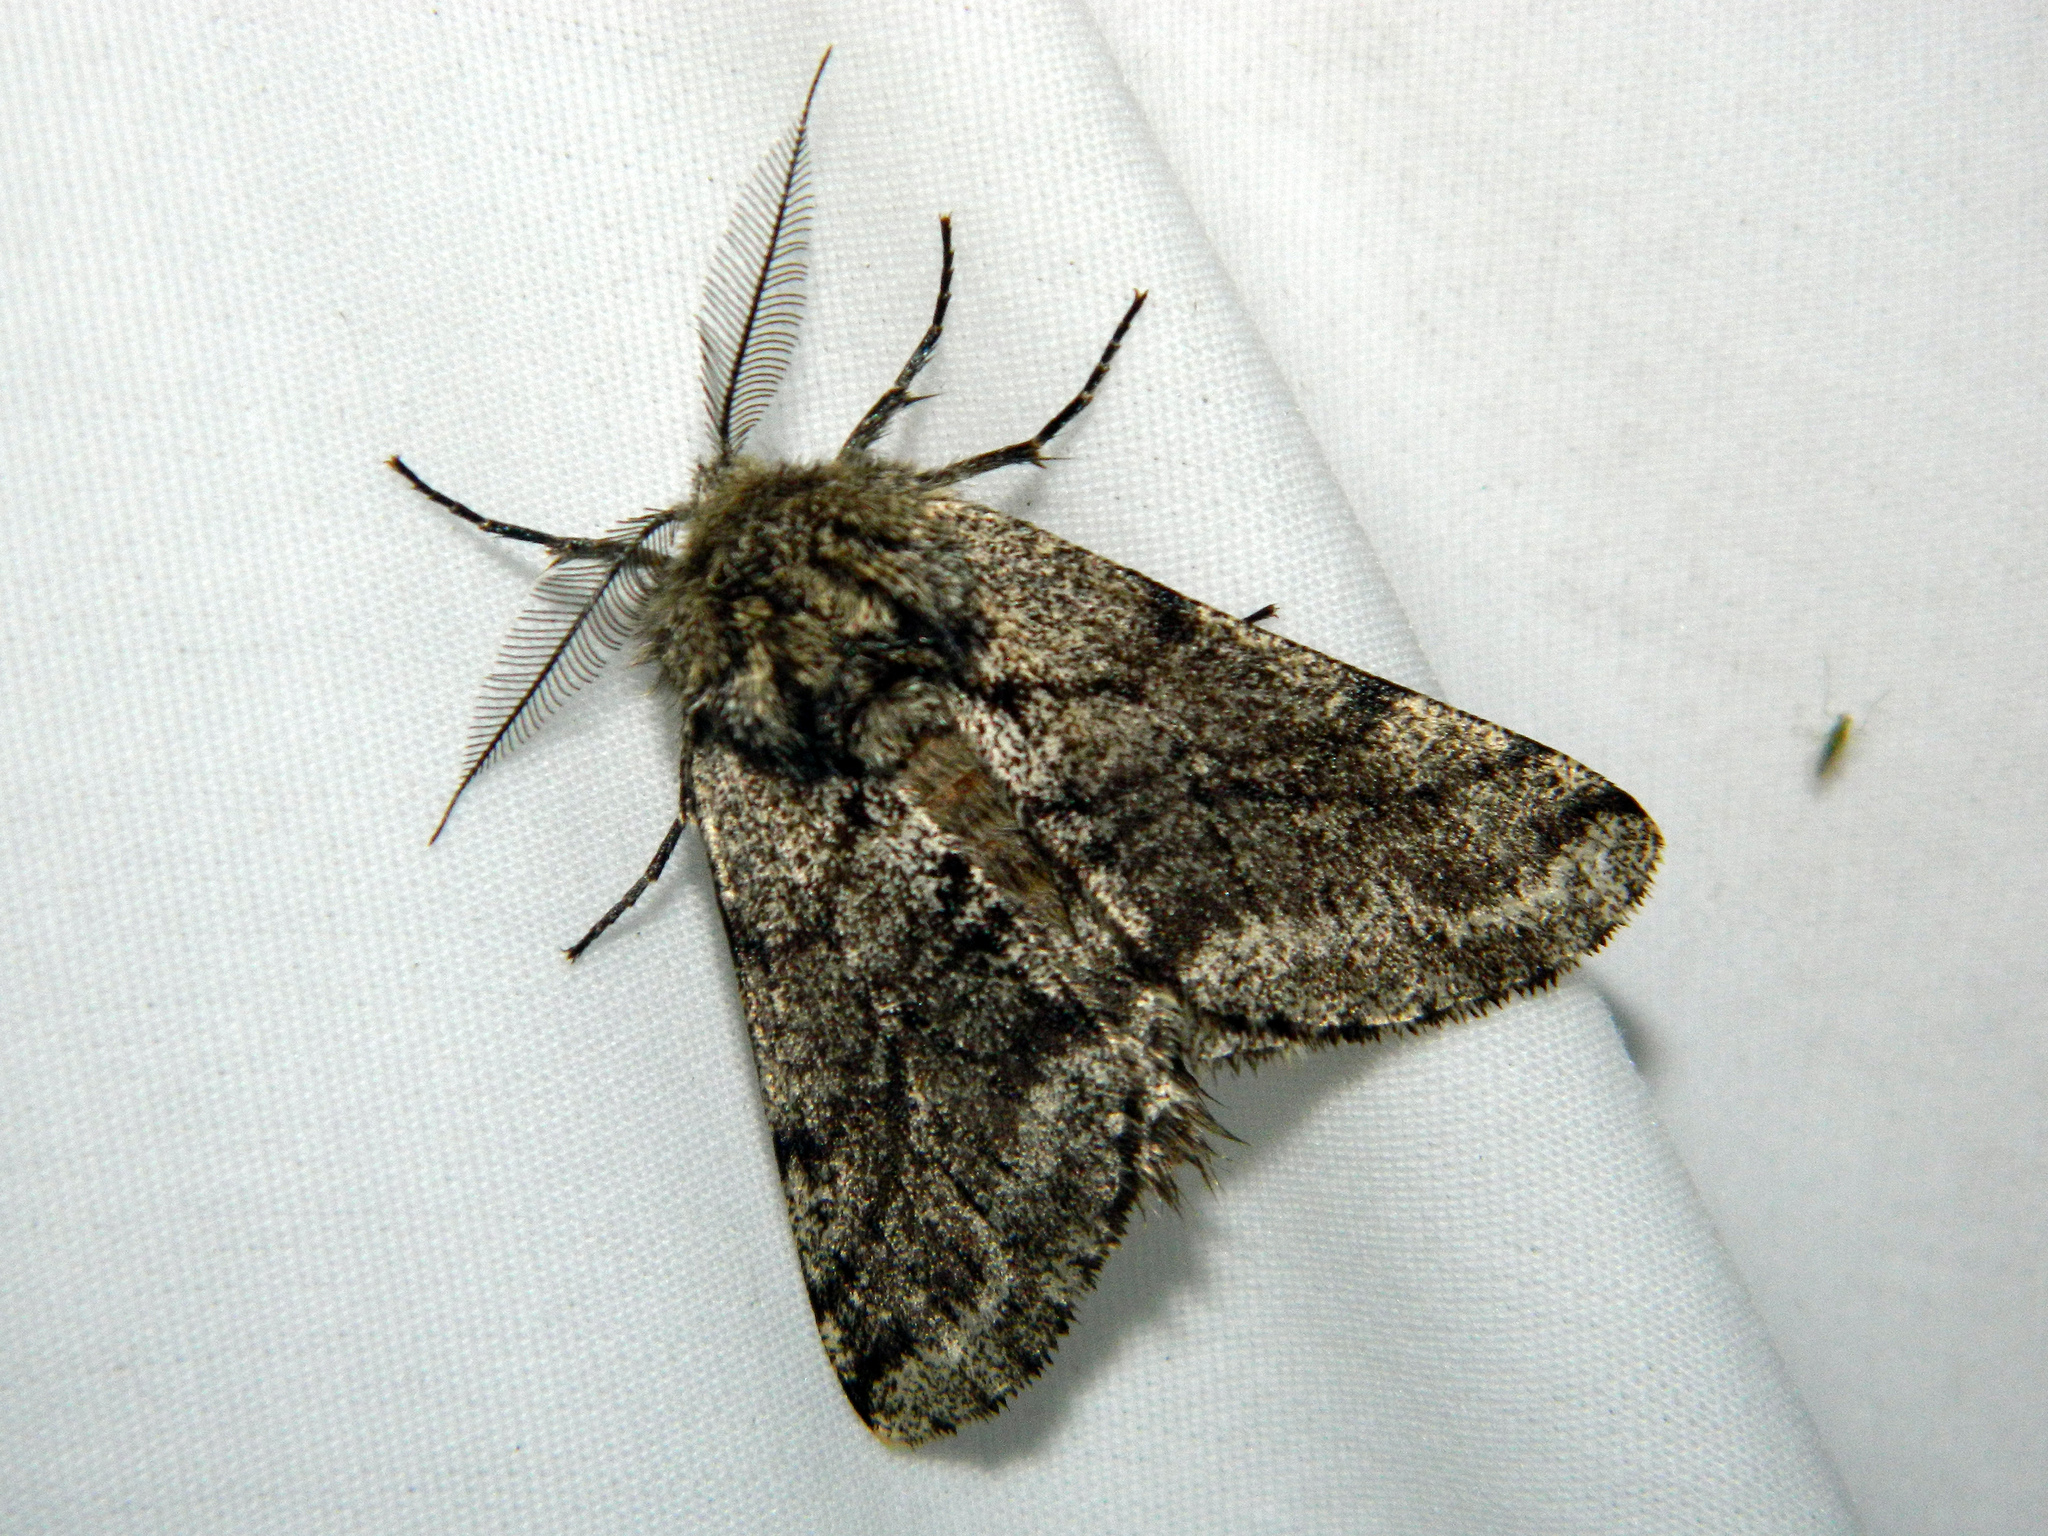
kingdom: Animalia
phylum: Arthropoda
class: Insecta
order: Lepidoptera
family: Geometridae
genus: Lycia
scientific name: Lycia ursaria
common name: Stout spanworm
